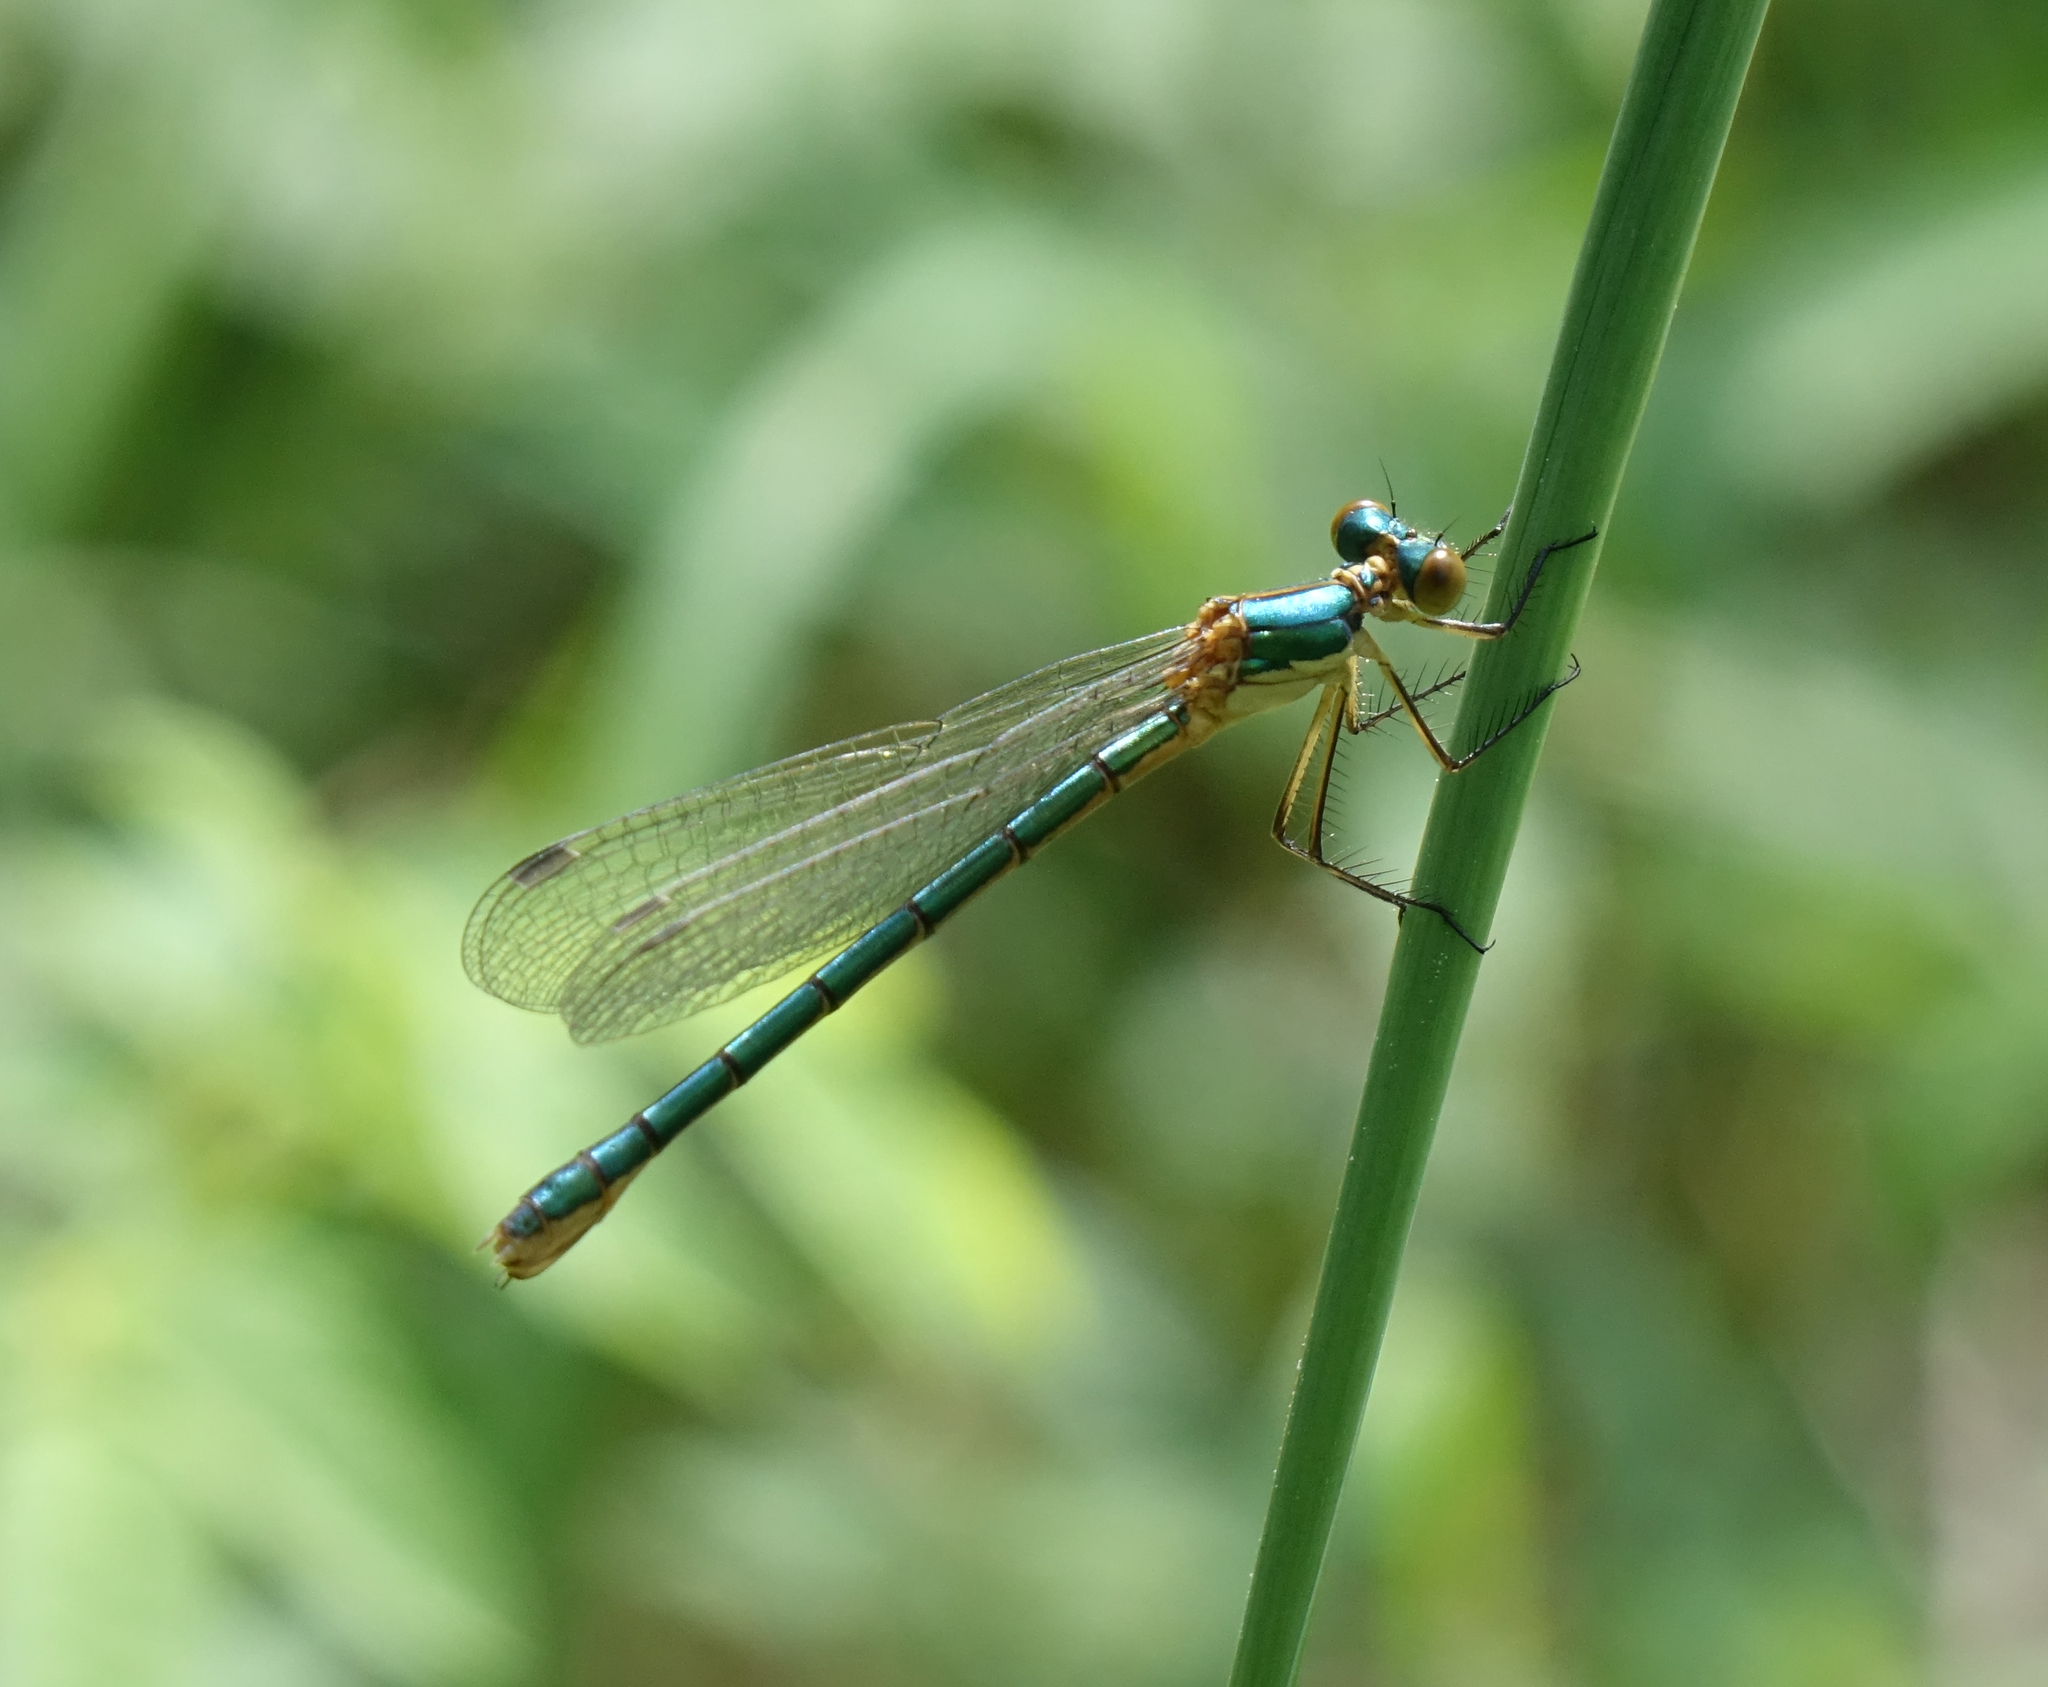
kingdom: Animalia
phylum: Arthropoda
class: Insecta
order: Odonata
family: Lestidae
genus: Lestes
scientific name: Lestes dryas
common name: Scarce emerald damselfly
